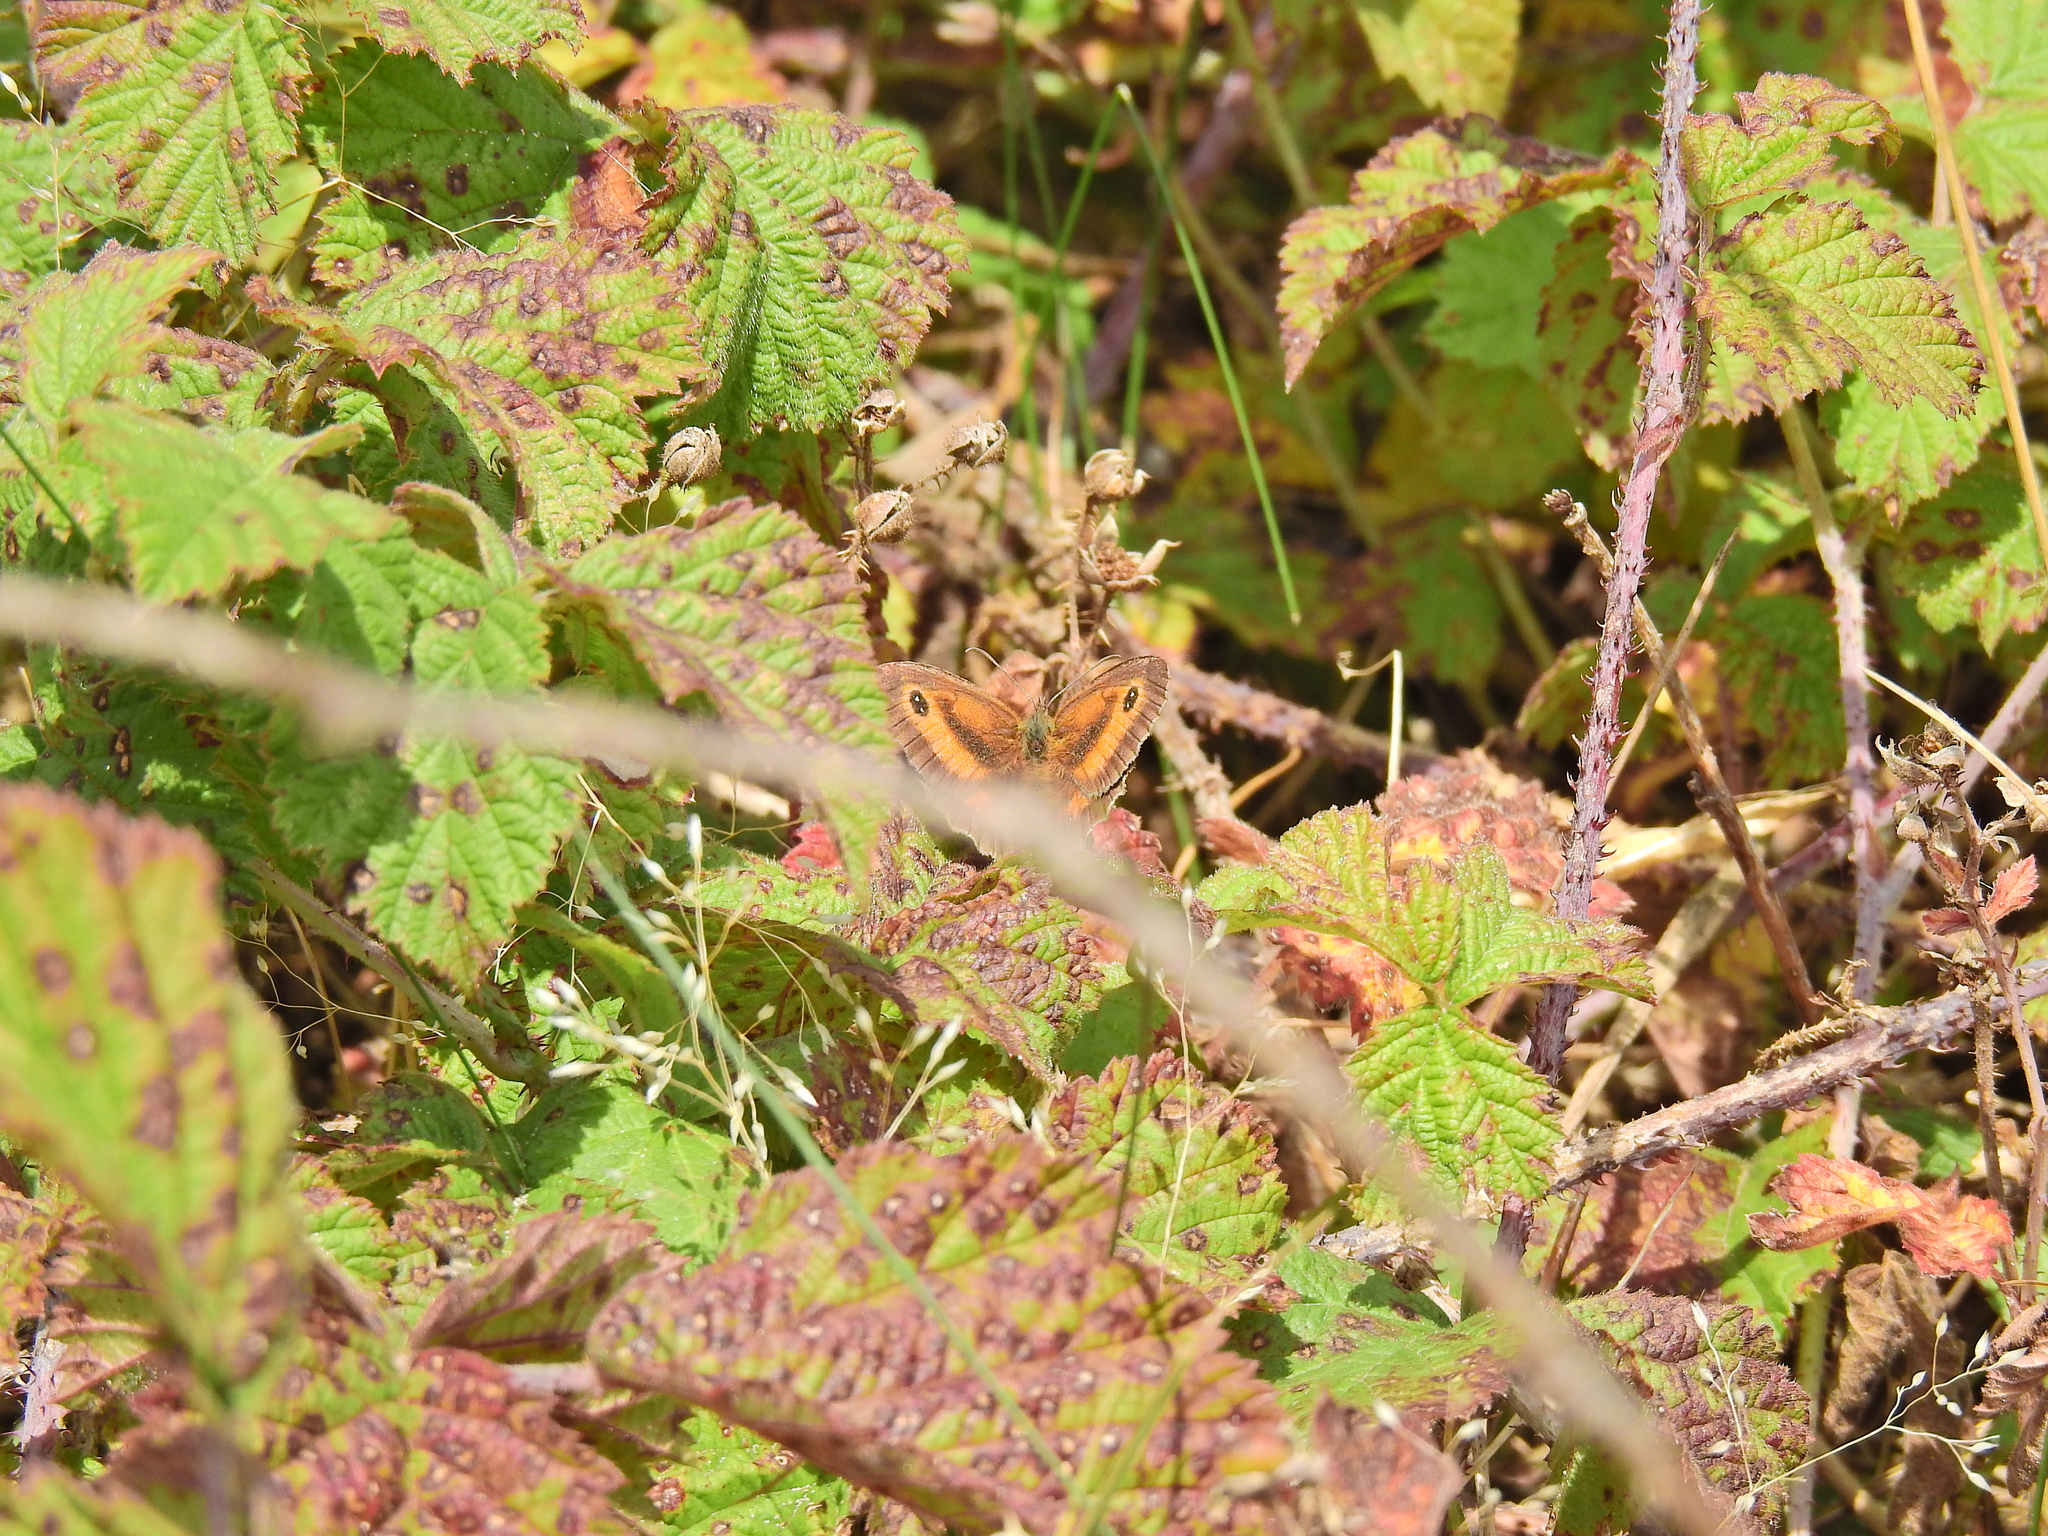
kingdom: Animalia
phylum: Arthropoda
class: Insecta
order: Lepidoptera
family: Nymphalidae
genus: Pyronia
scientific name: Pyronia tithonus
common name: Gatekeeper
